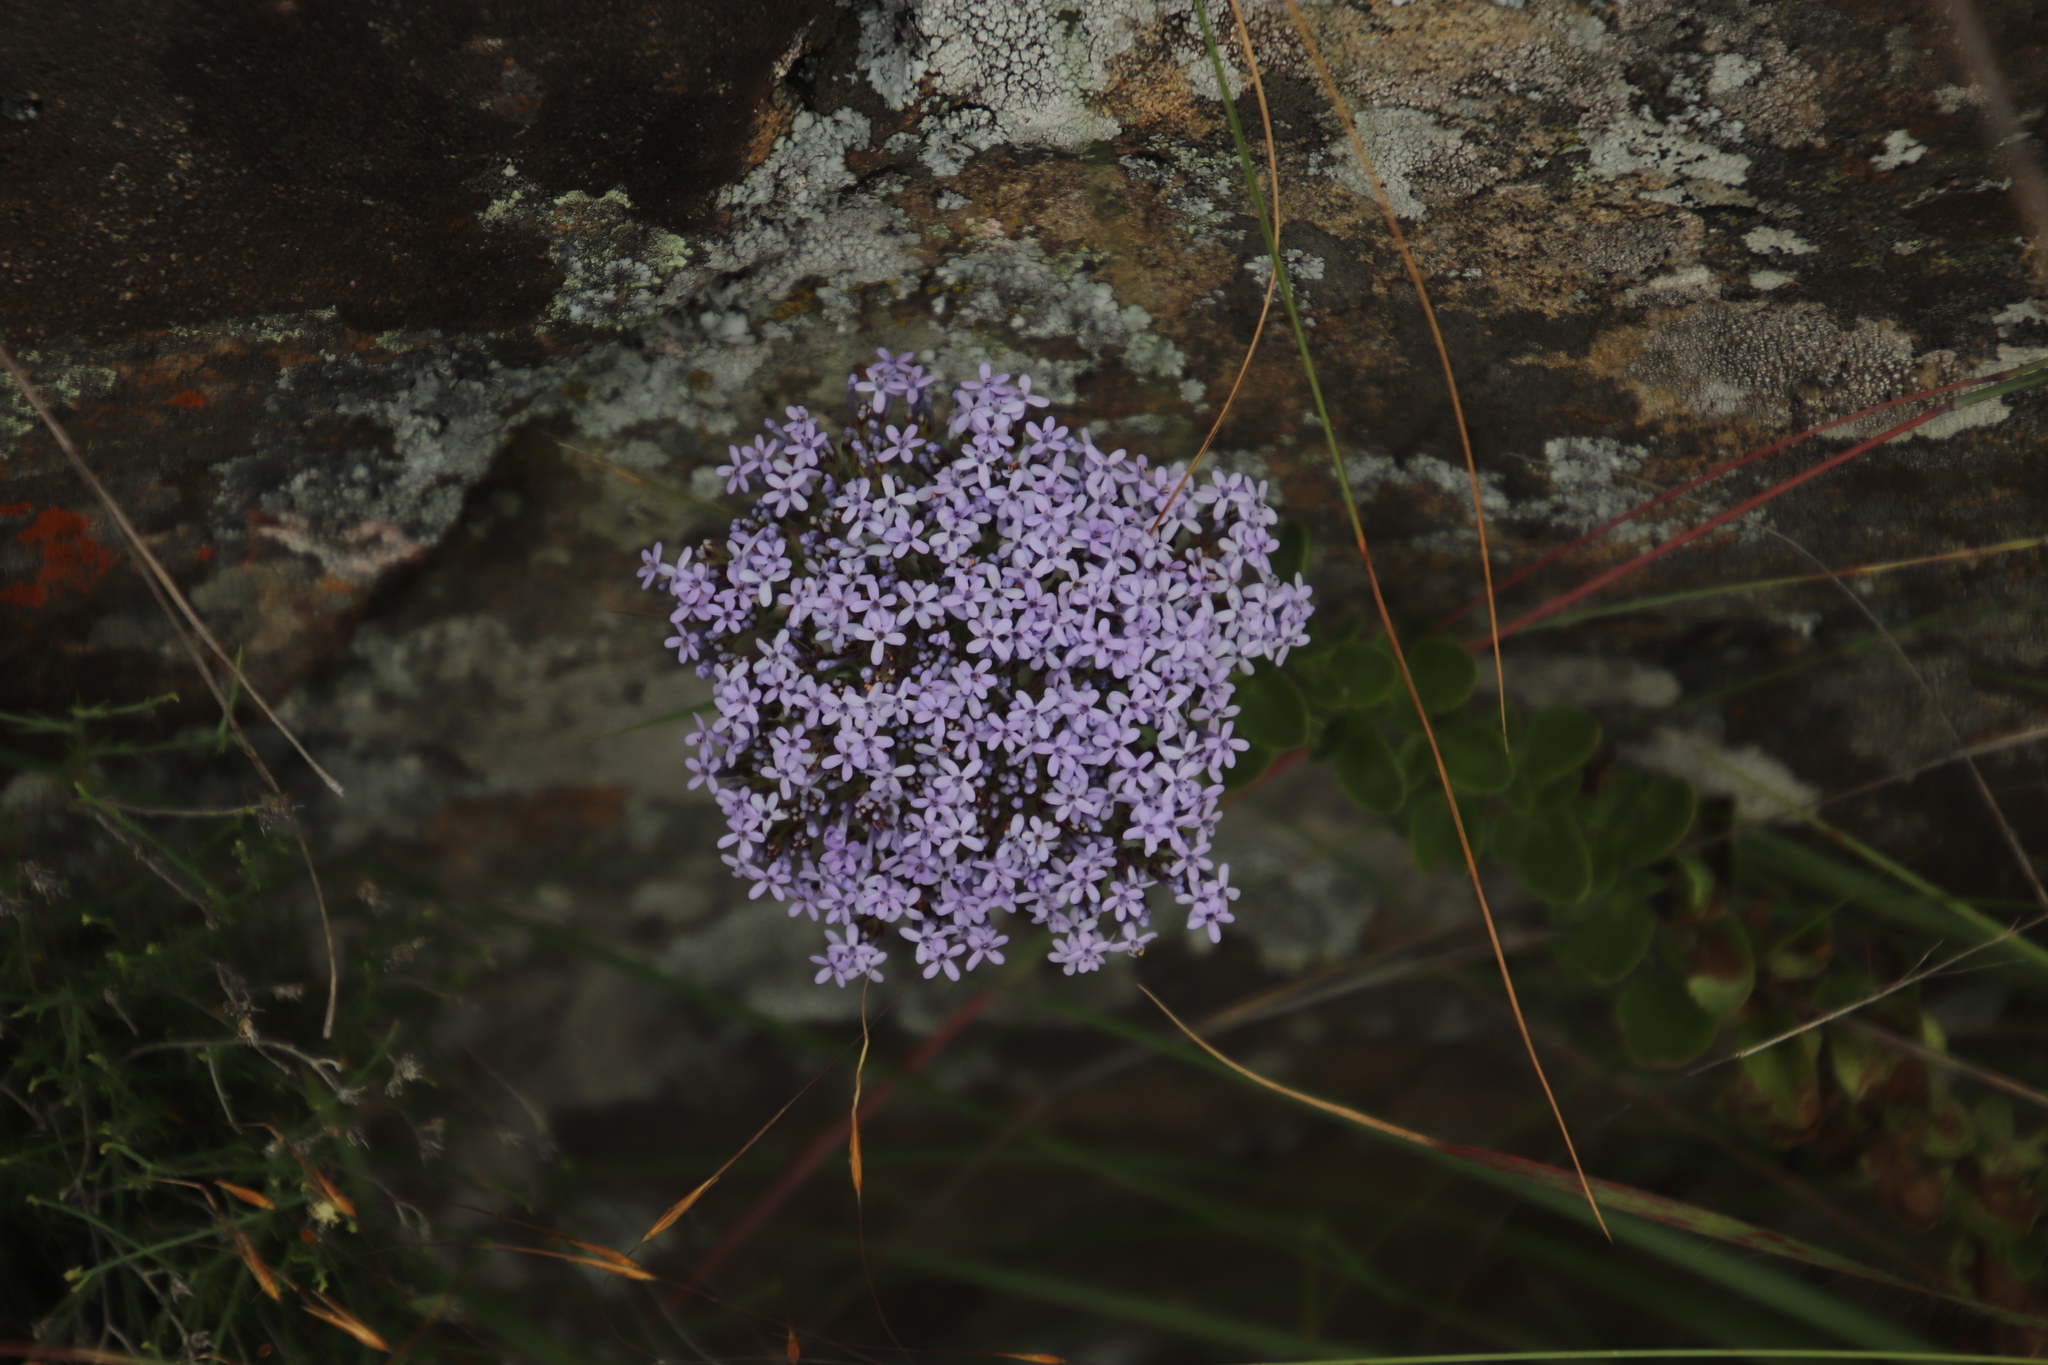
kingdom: Plantae
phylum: Tracheophyta
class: Magnoliopsida
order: Lamiales
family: Scrophulariaceae
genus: Tetraselago
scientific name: Tetraselago wilmsii
